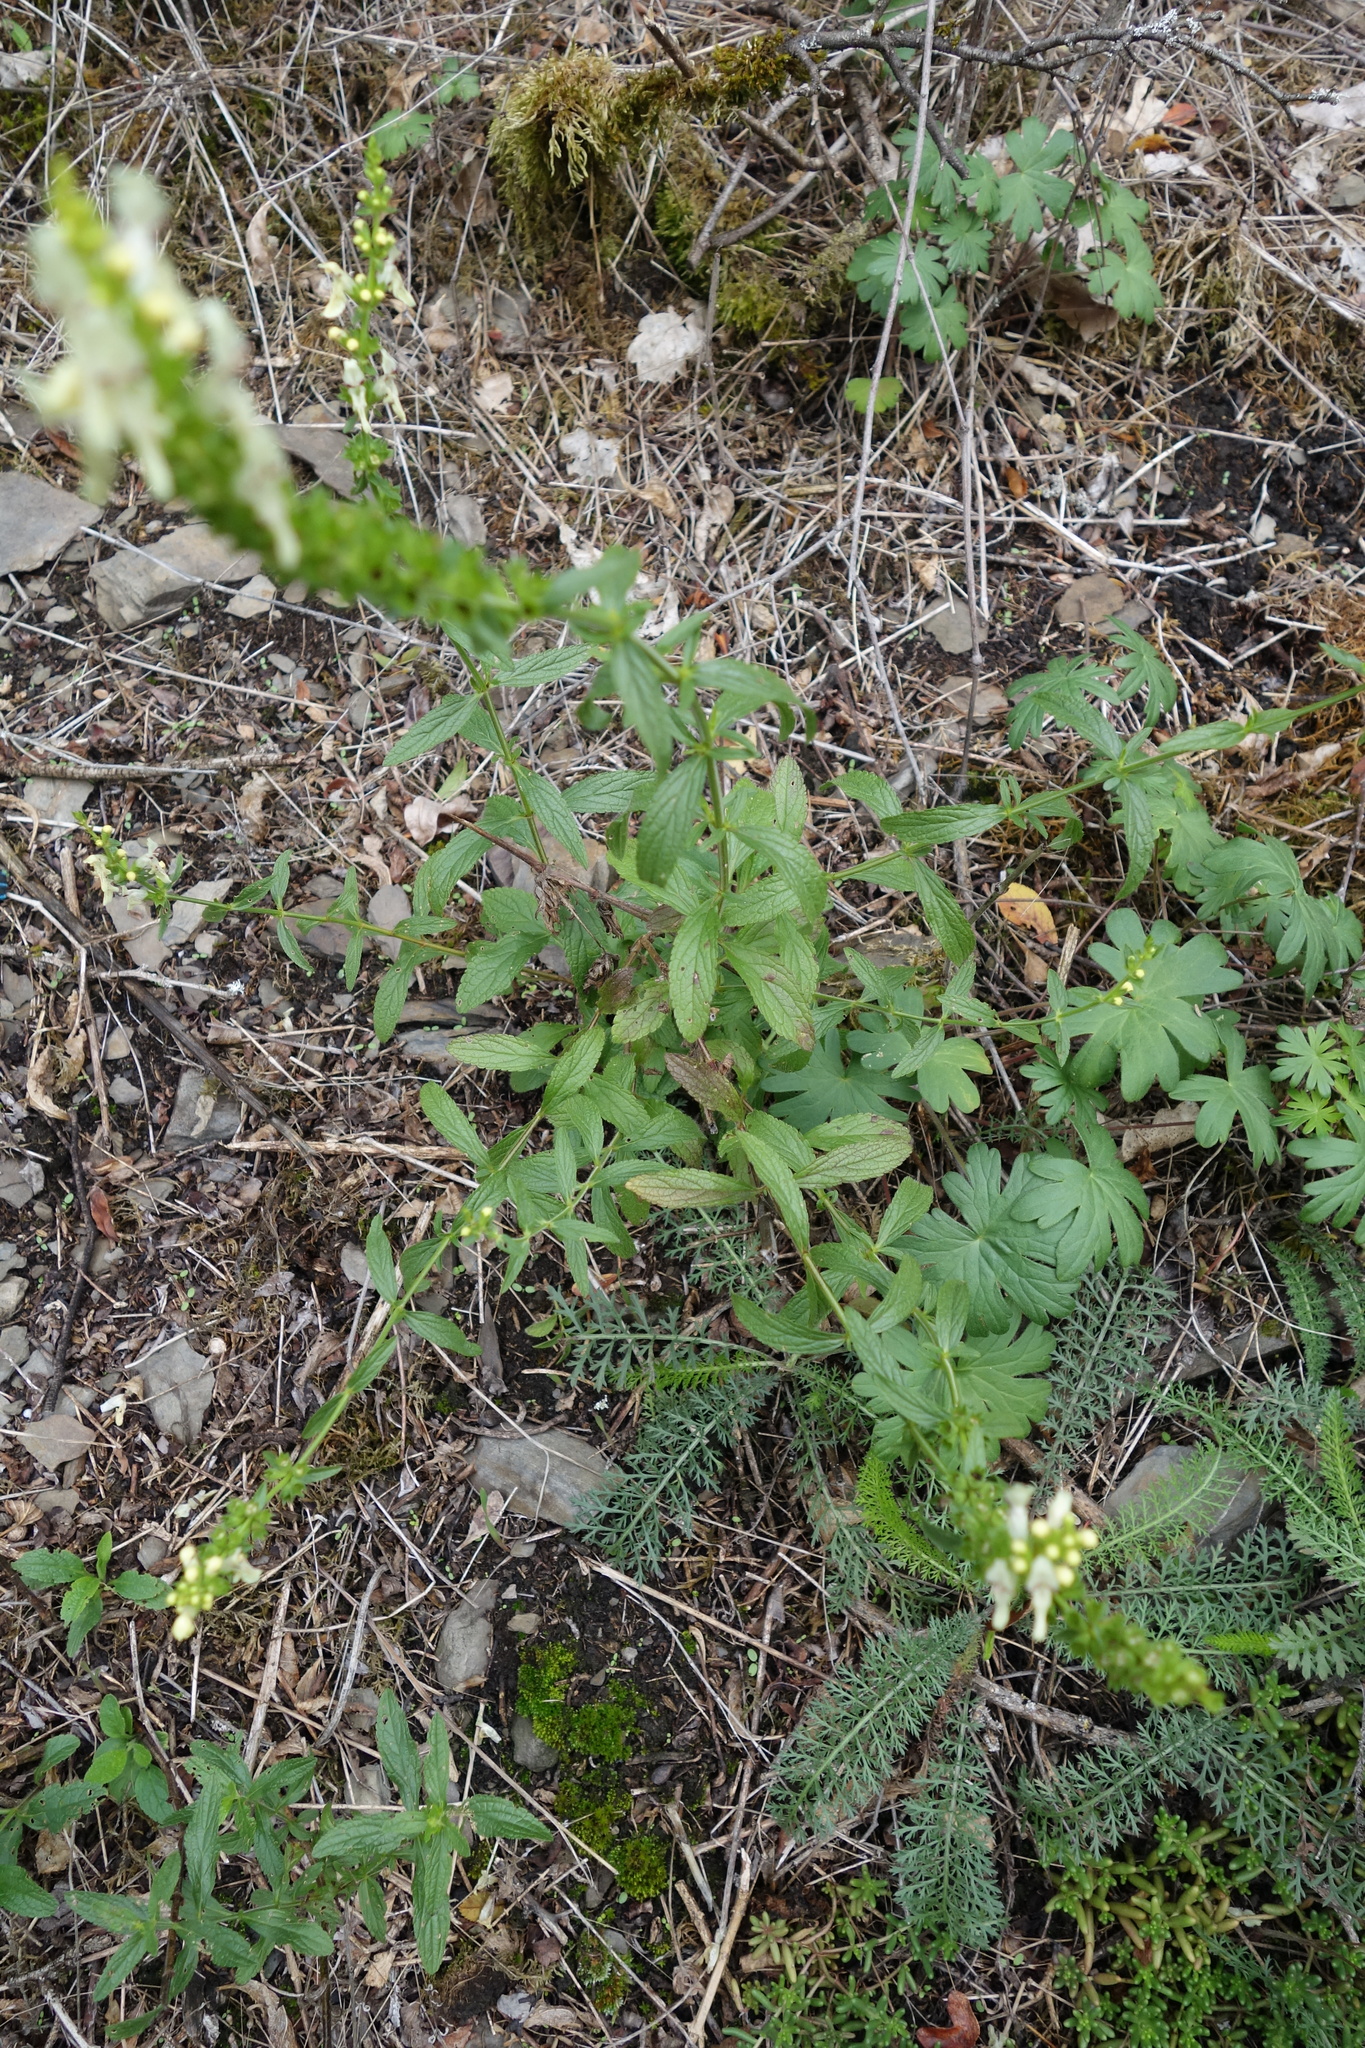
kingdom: Plantae
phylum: Tracheophyta
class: Magnoliopsida
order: Lamiales
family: Lamiaceae
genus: Stachys
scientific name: Stachys recta
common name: Perennial yellow-woundwort
